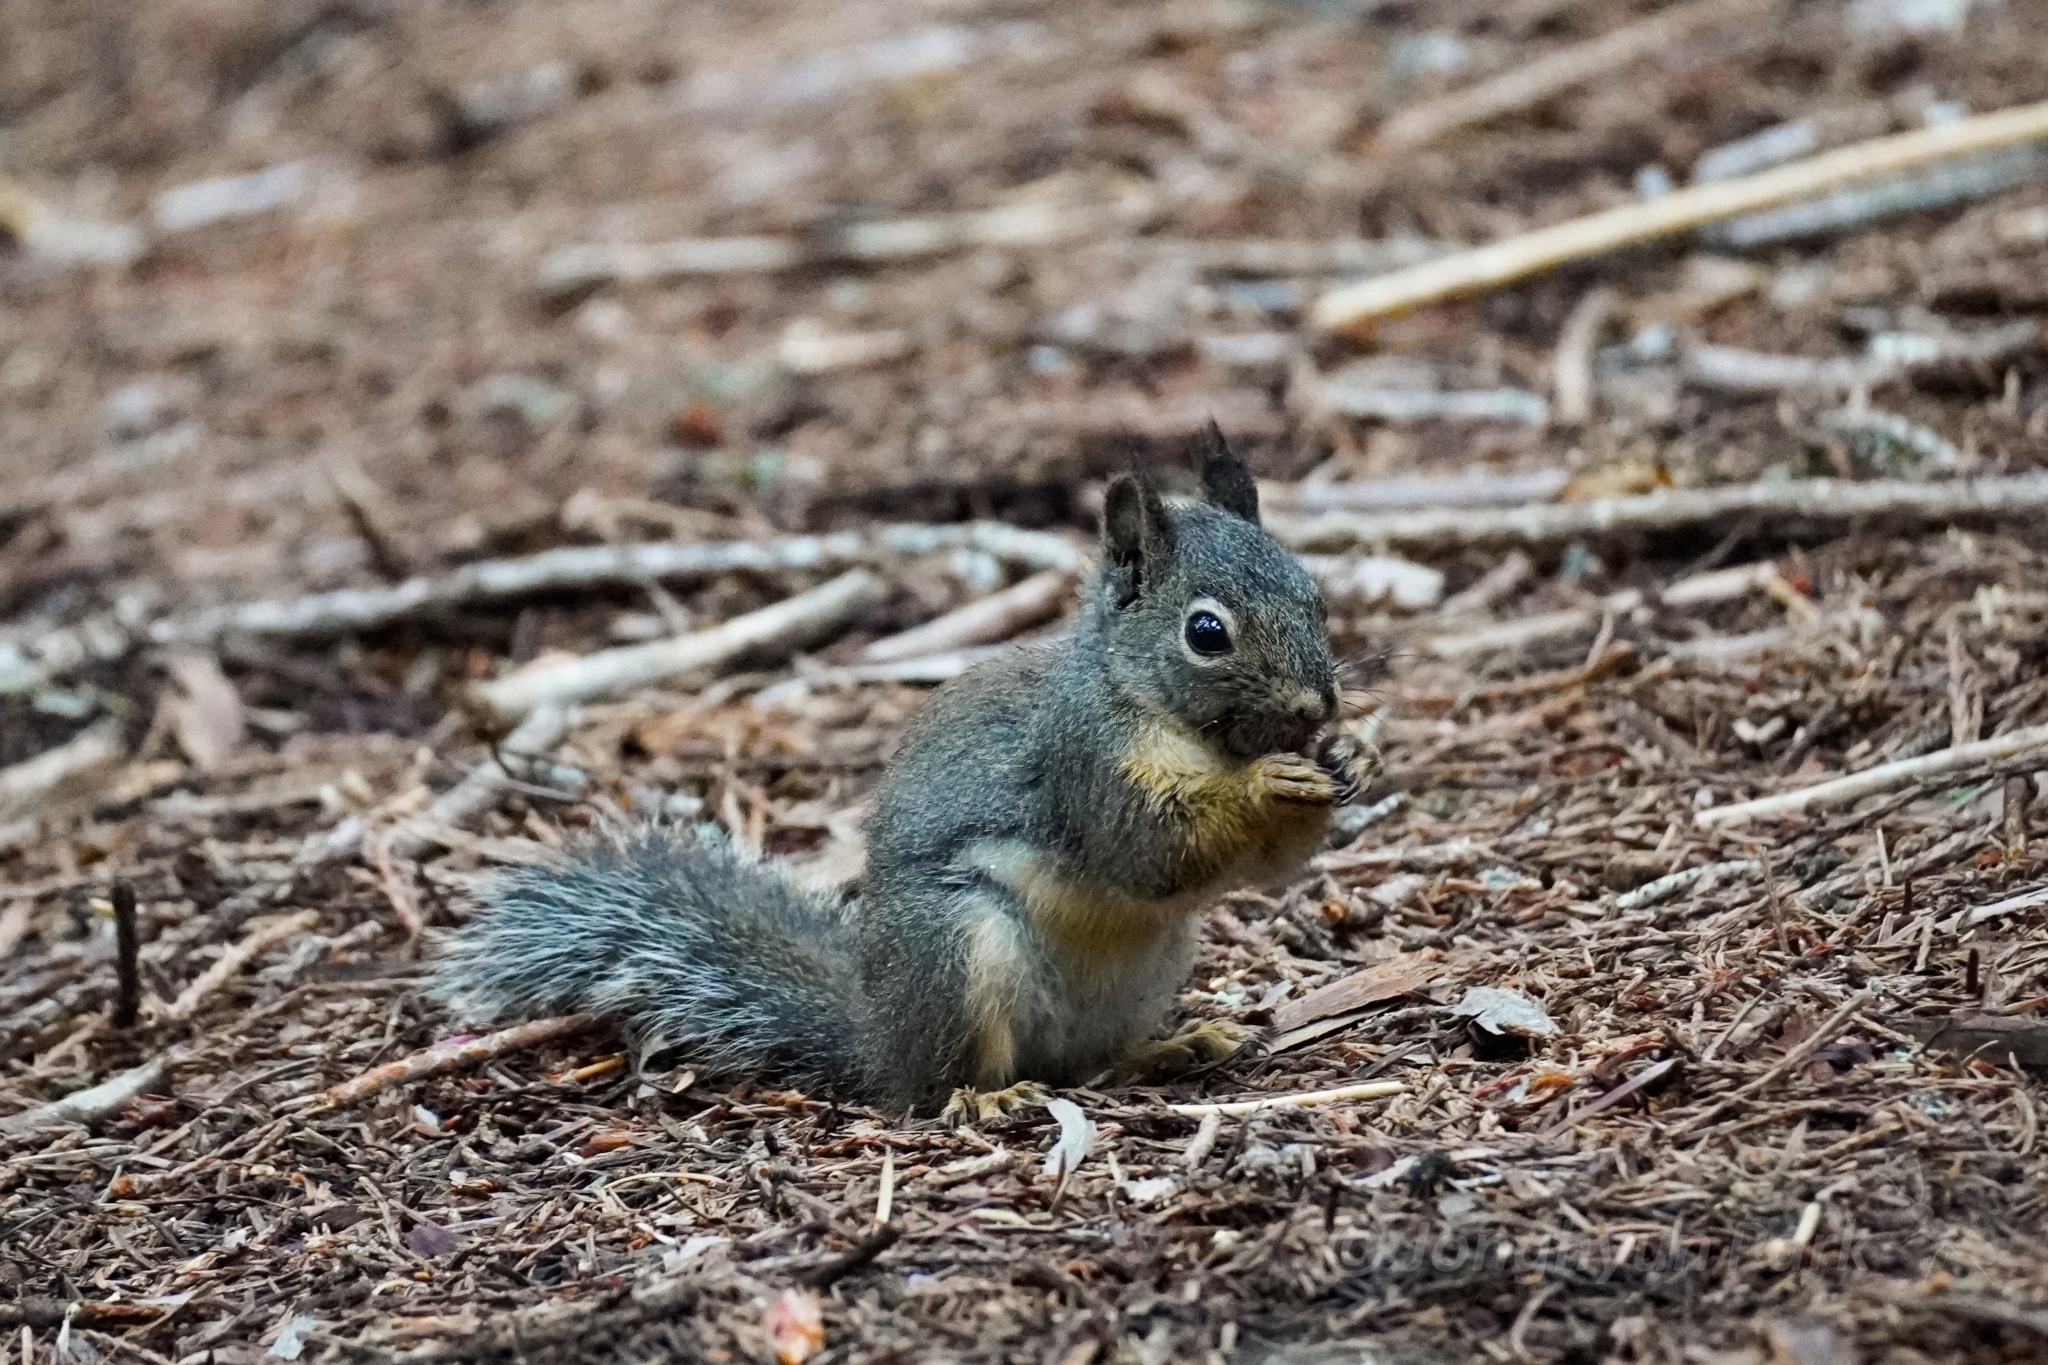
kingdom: Animalia
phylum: Chordata
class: Mammalia
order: Rodentia
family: Sciuridae
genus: Tamiasciurus
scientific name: Tamiasciurus douglasii
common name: Douglas's squirrel
